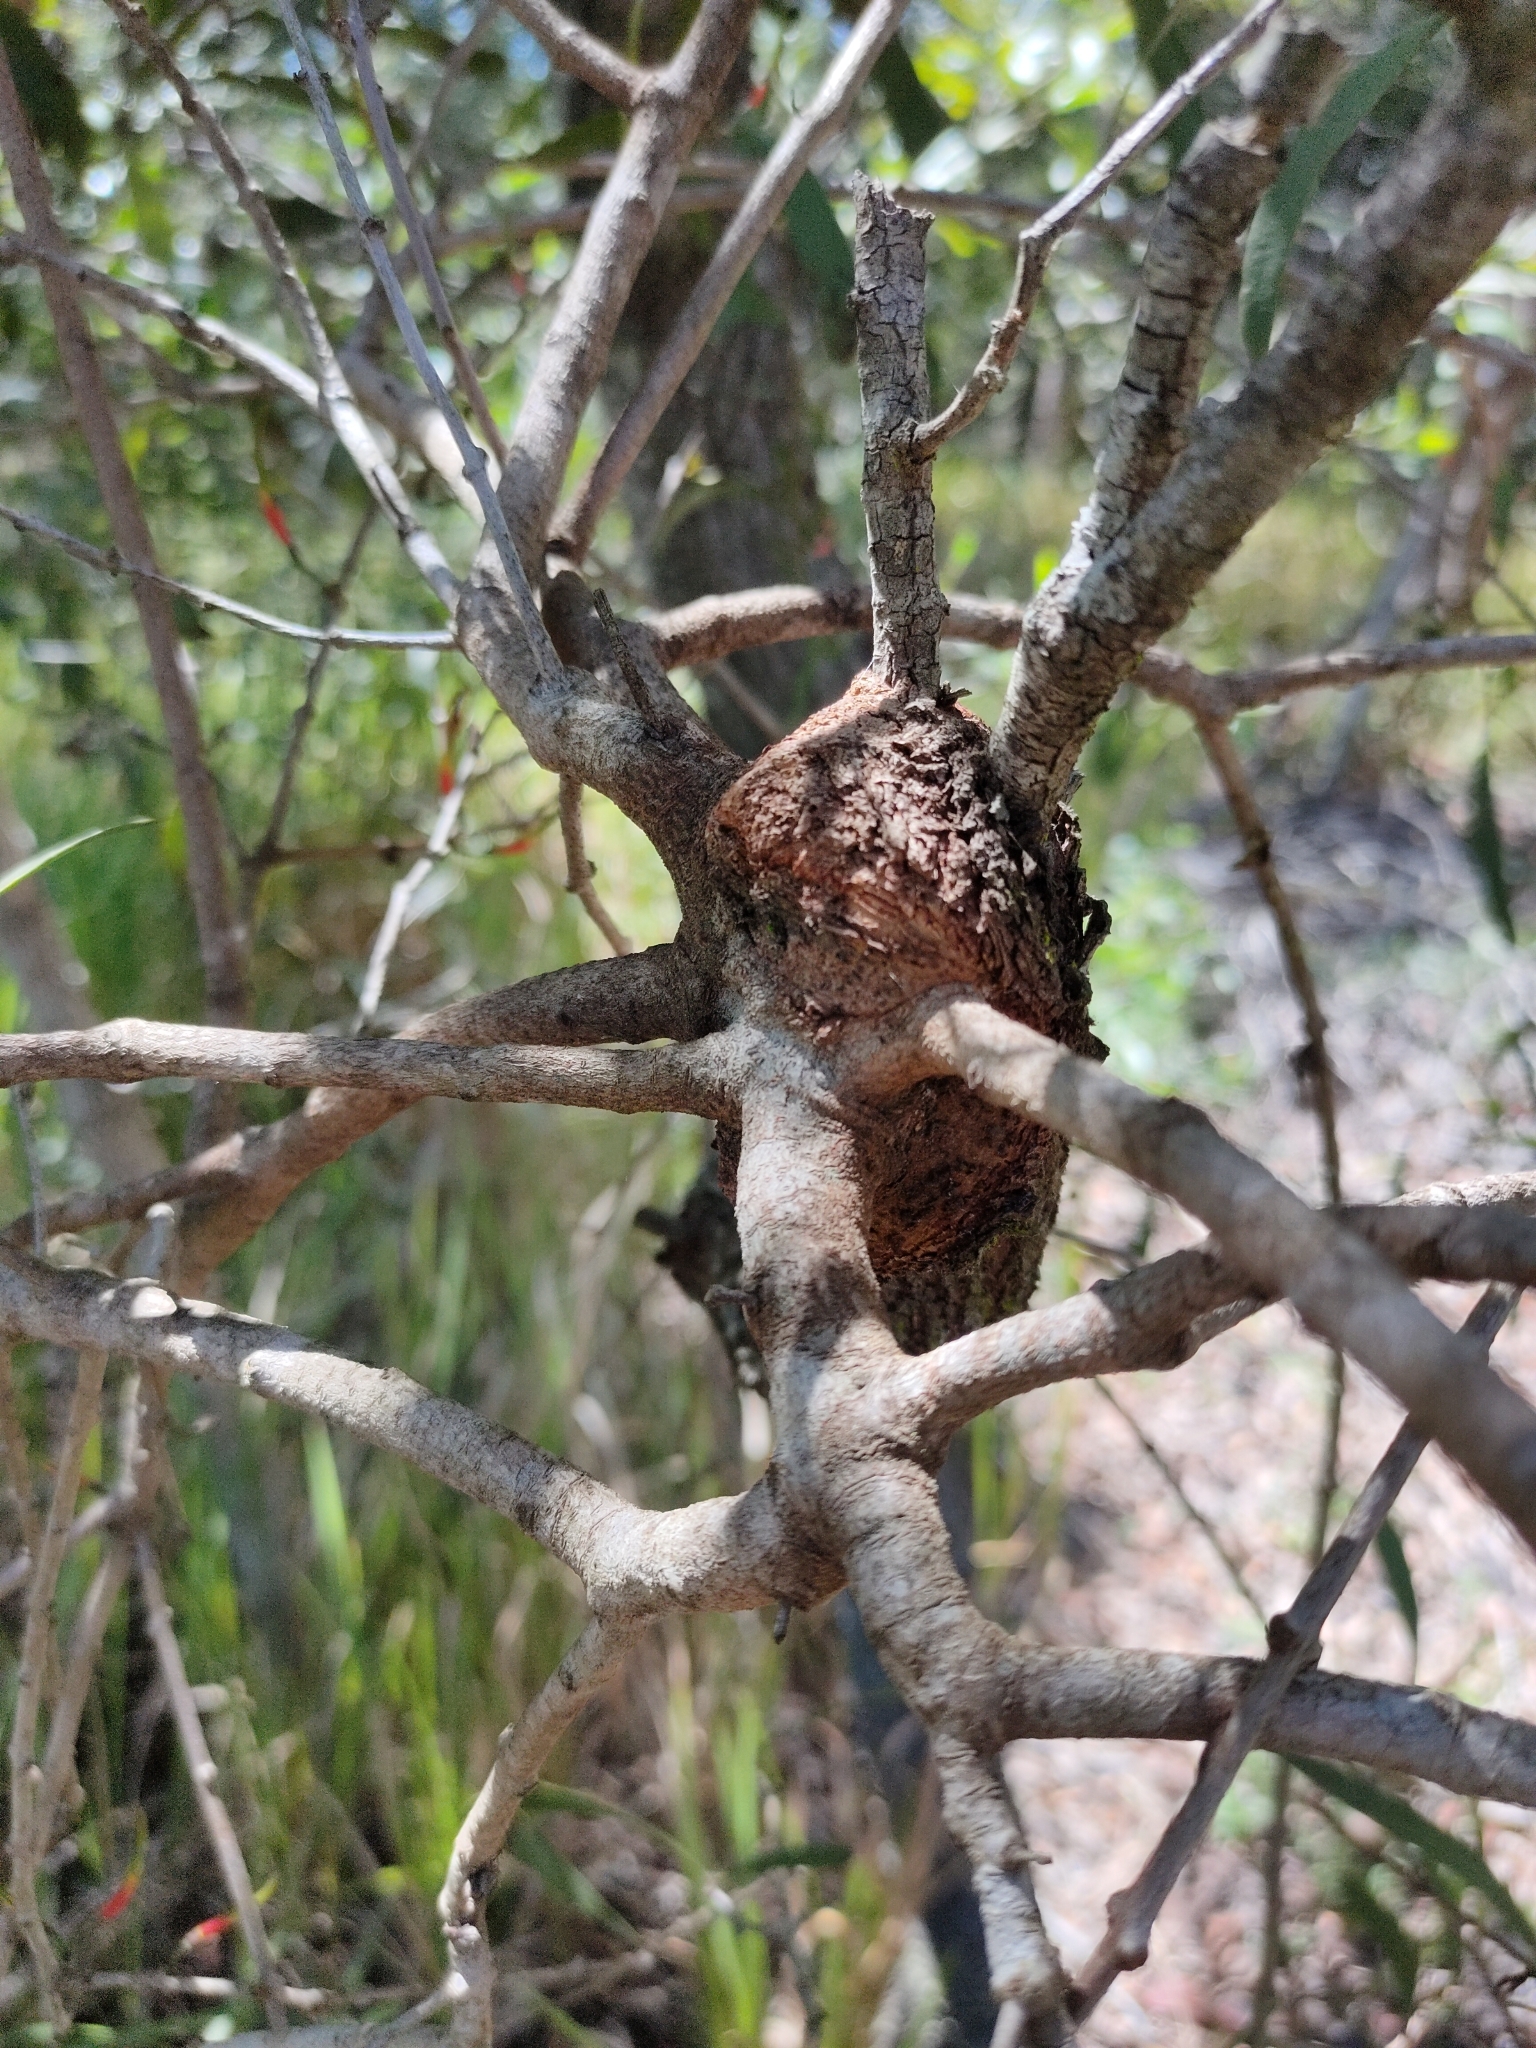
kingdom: Plantae
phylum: Tracheophyta
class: Magnoliopsida
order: Santalales
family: Loranthaceae
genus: Lysiana
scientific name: Lysiana subfalcata
